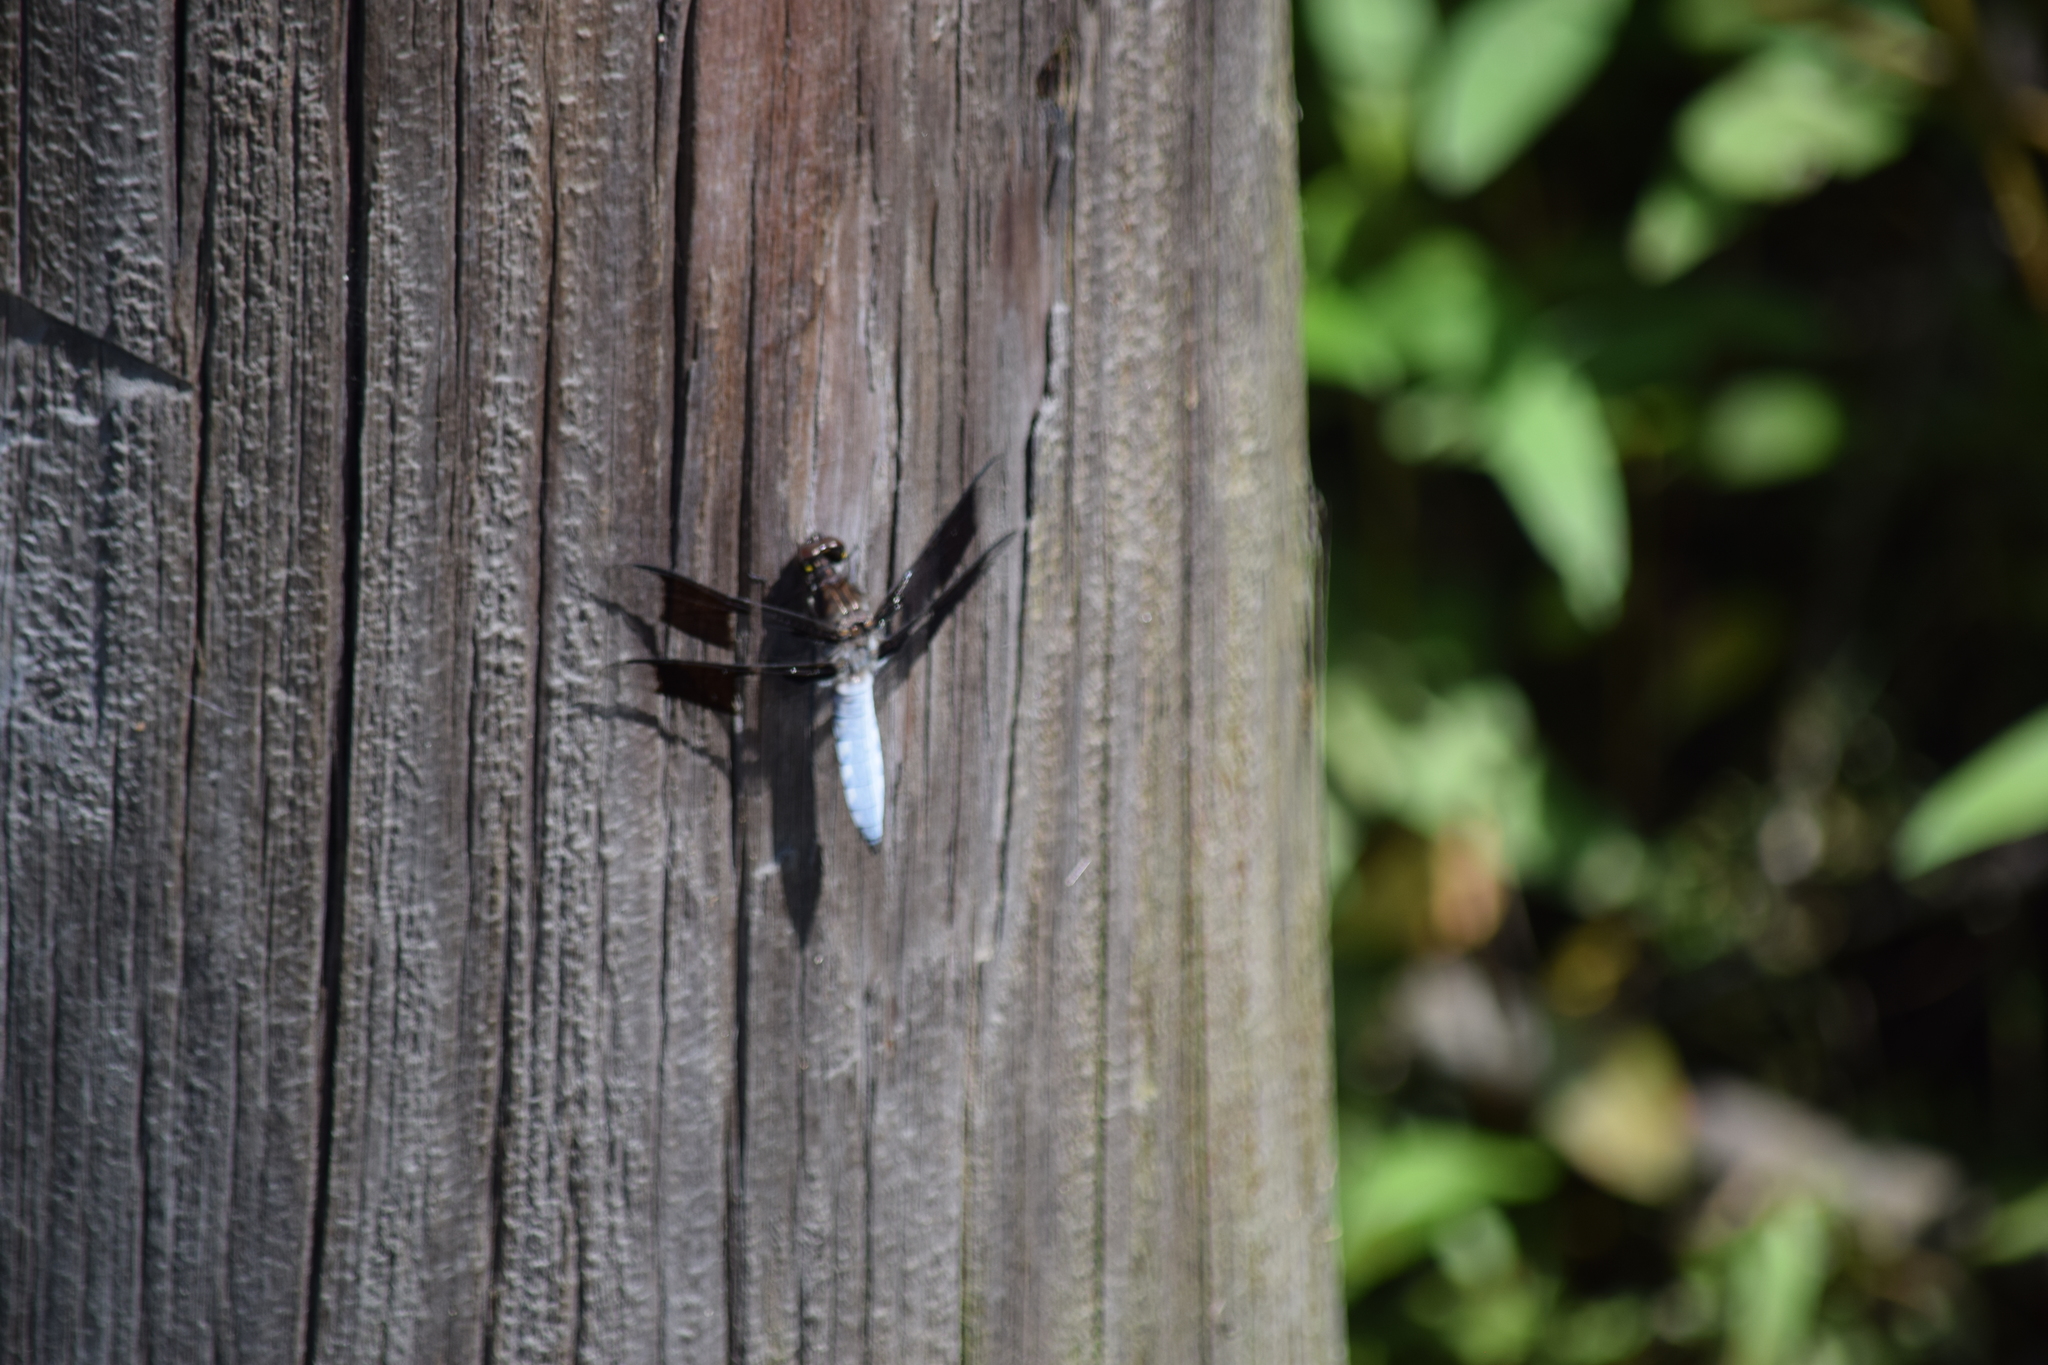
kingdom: Animalia
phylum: Arthropoda
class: Insecta
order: Odonata
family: Libellulidae
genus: Plathemis
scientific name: Plathemis lydia
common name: Common whitetail
